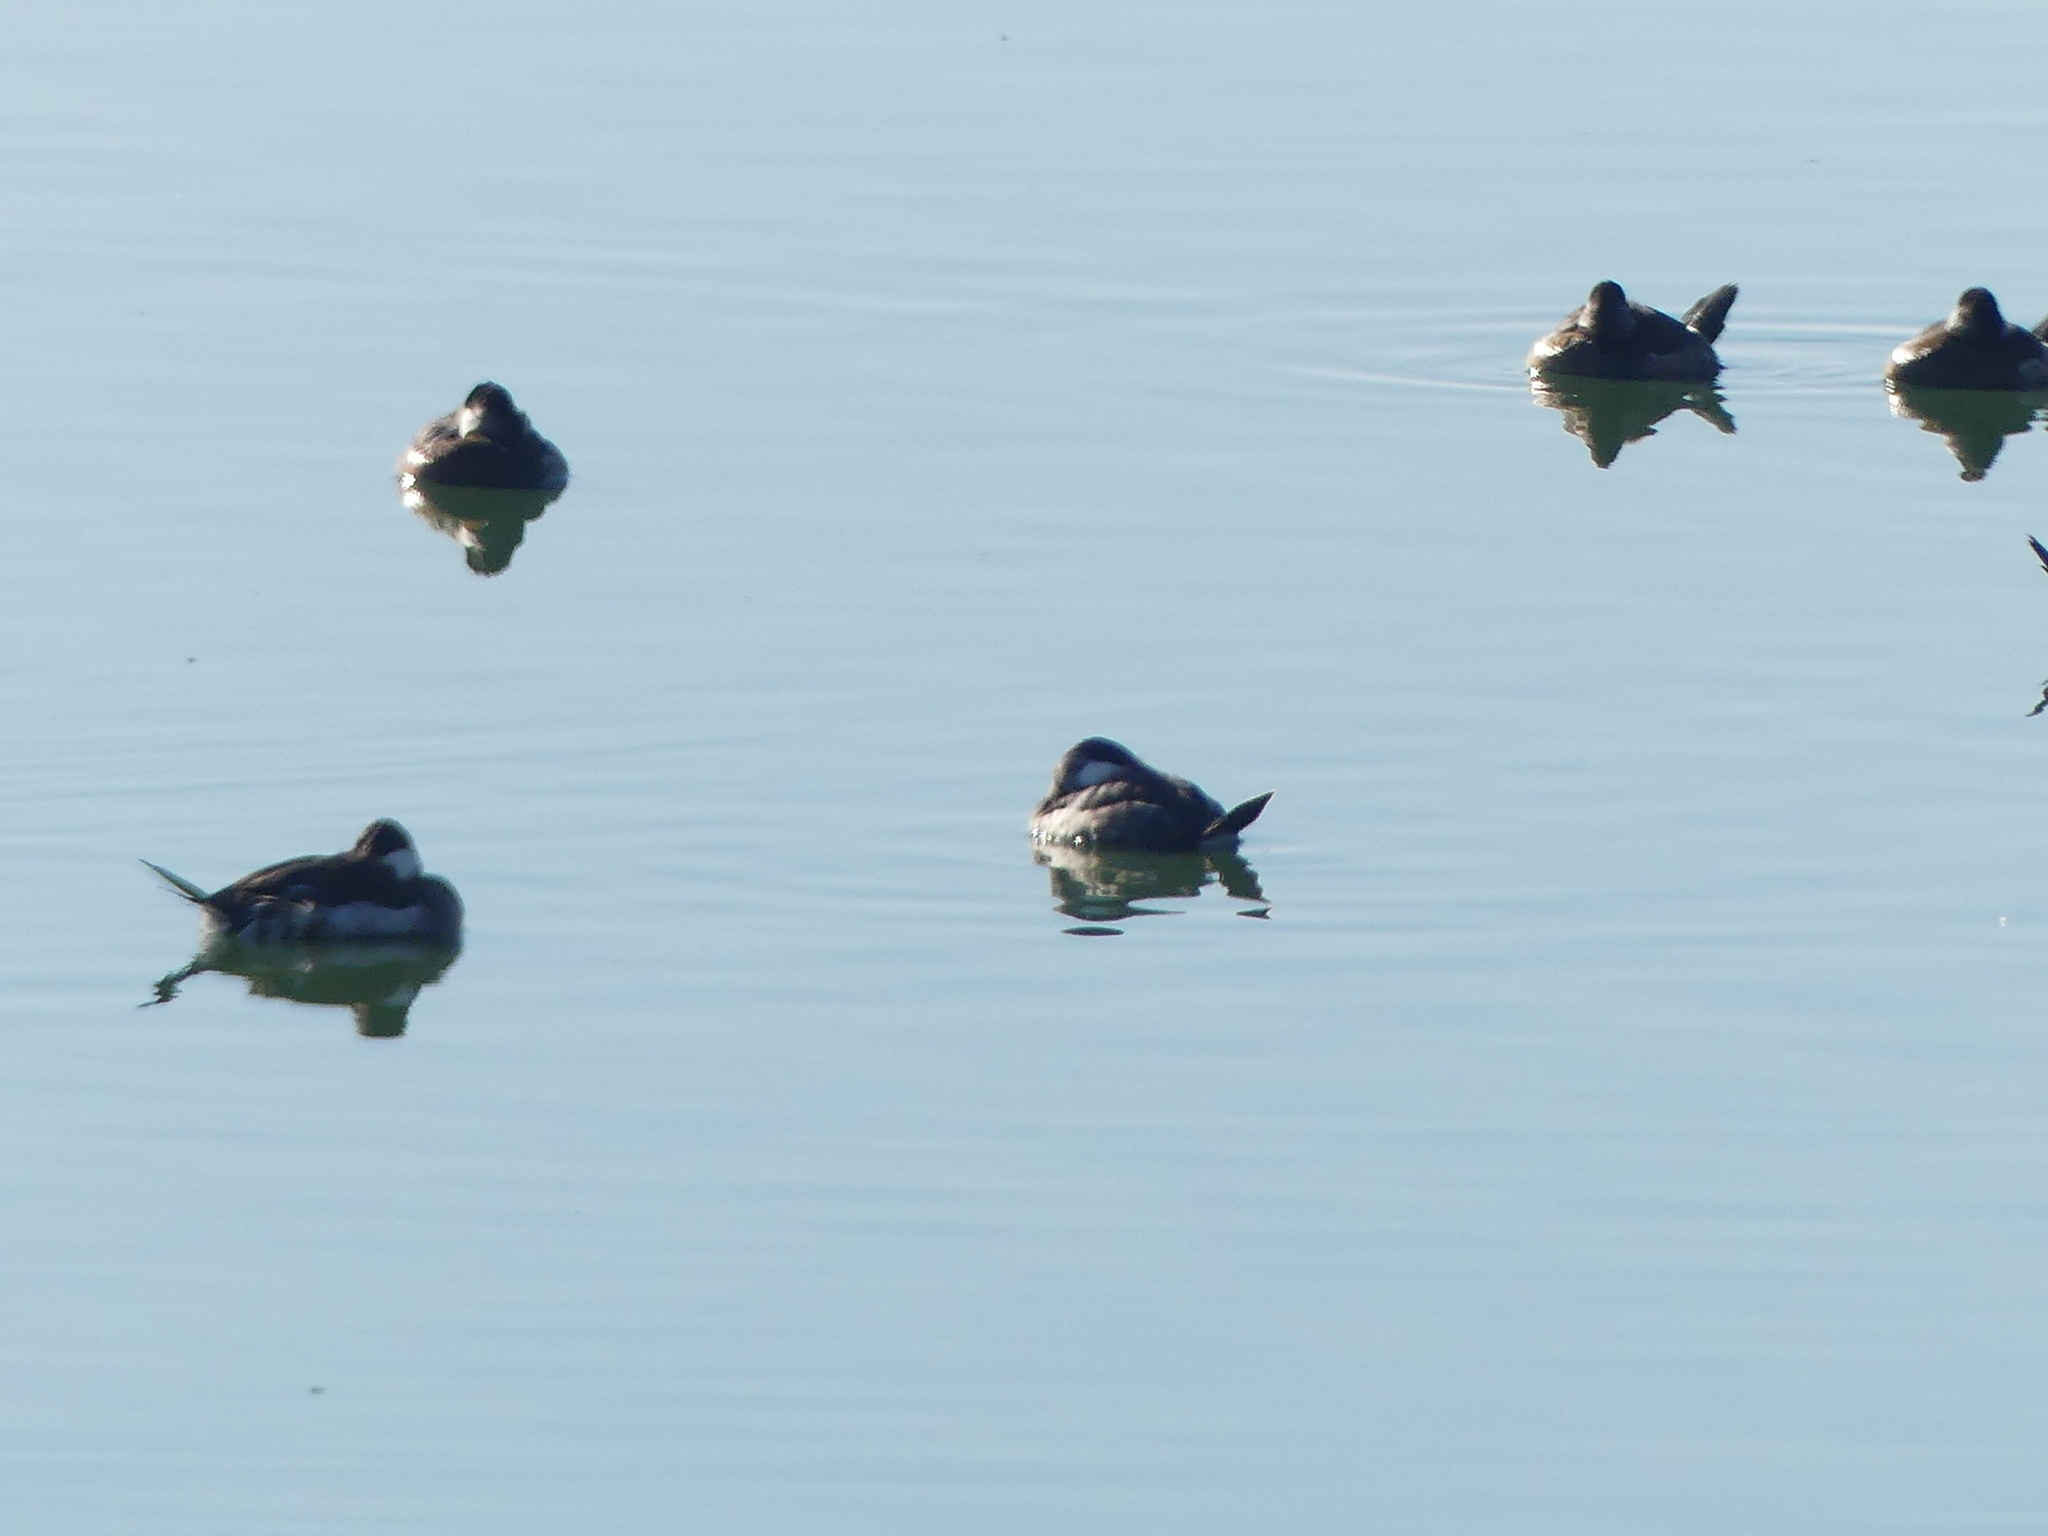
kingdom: Animalia
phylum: Chordata
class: Aves
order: Anseriformes
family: Anatidae
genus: Oxyura
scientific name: Oxyura jamaicensis
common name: Ruddy duck
